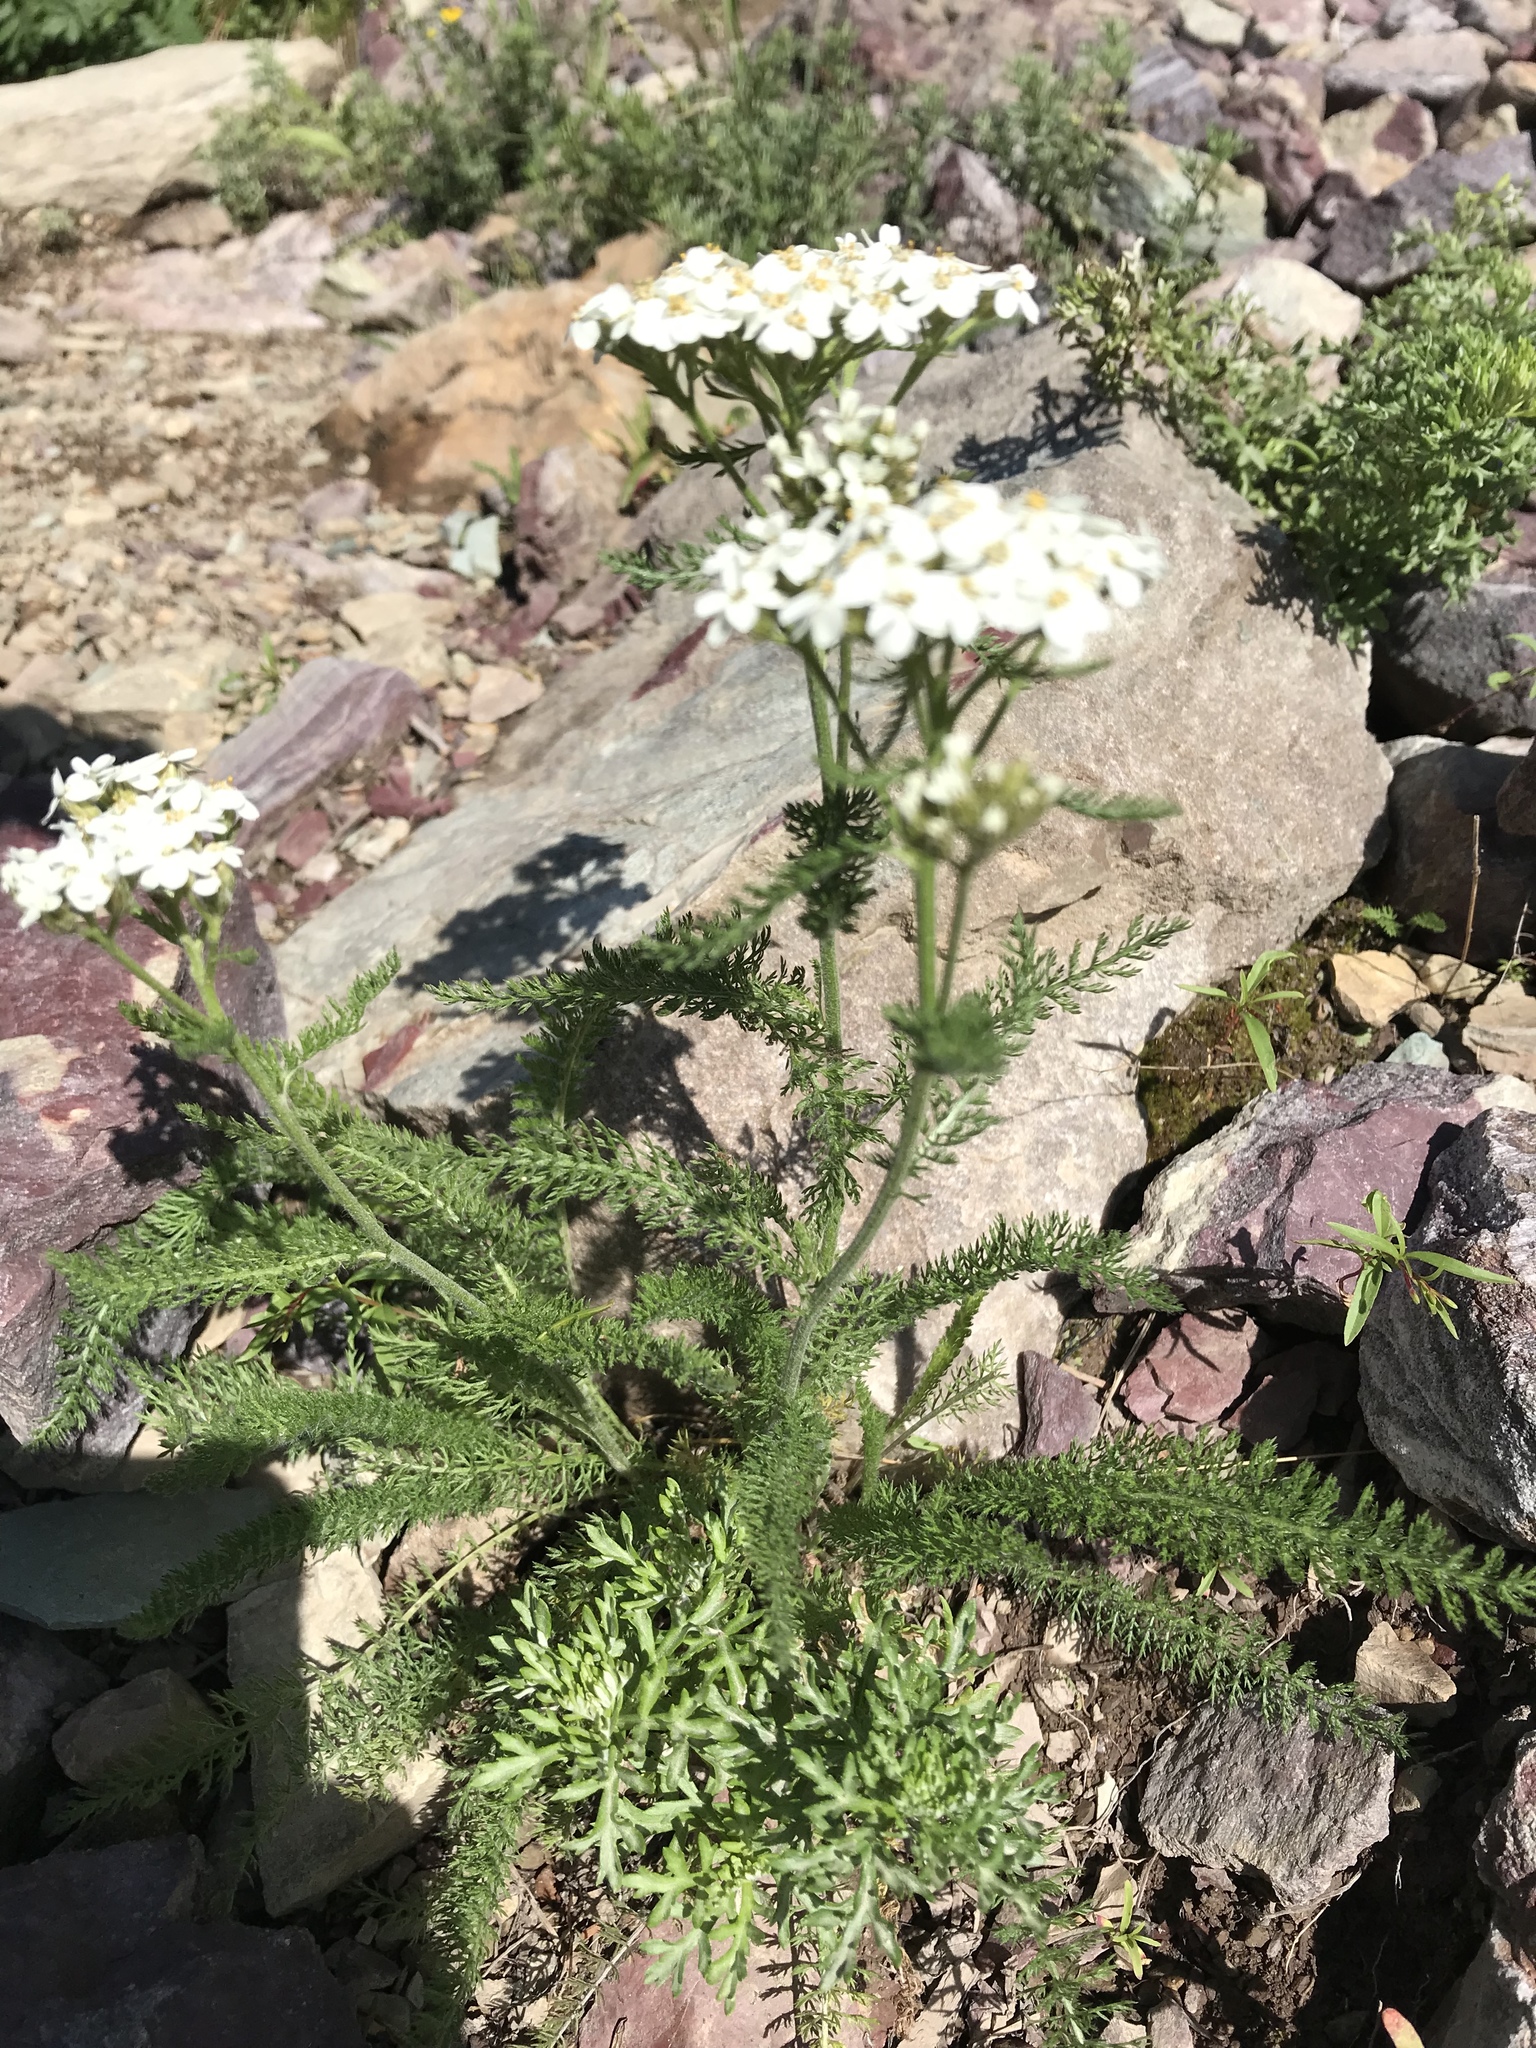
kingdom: Plantae
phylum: Tracheophyta
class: Magnoliopsida
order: Asterales
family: Asteraceae
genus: Achillea
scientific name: Achillea millefolium
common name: Yarrow
